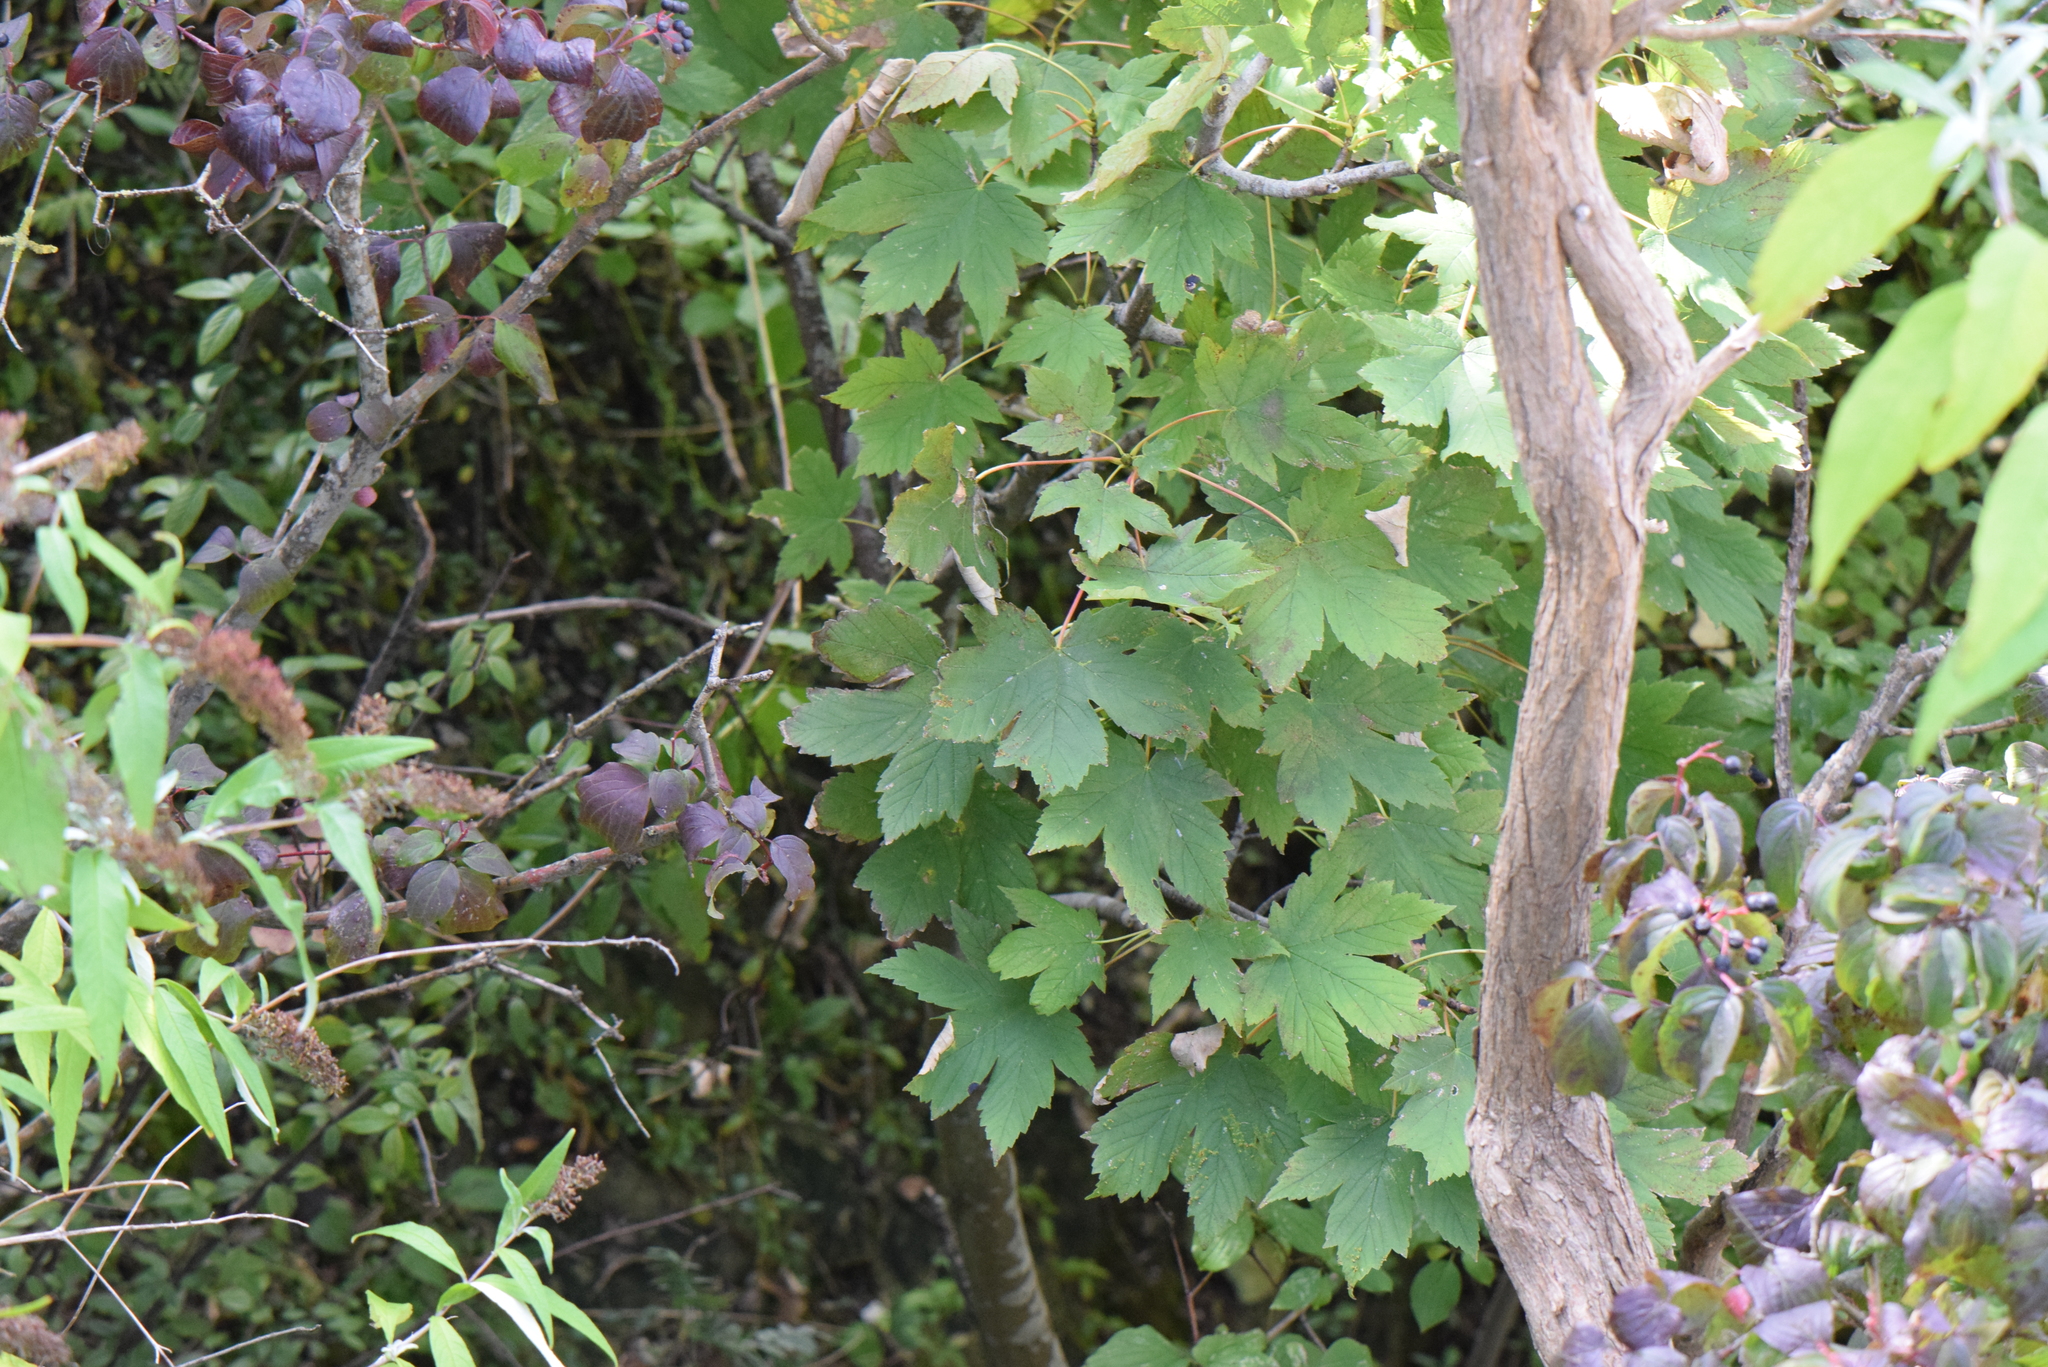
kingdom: Plantae
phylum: Tracheophyta
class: Magnoliopsida
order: Sapindales
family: Sapindaceae
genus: Acer
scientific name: Acer pseudoplatanus
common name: Sycamore
